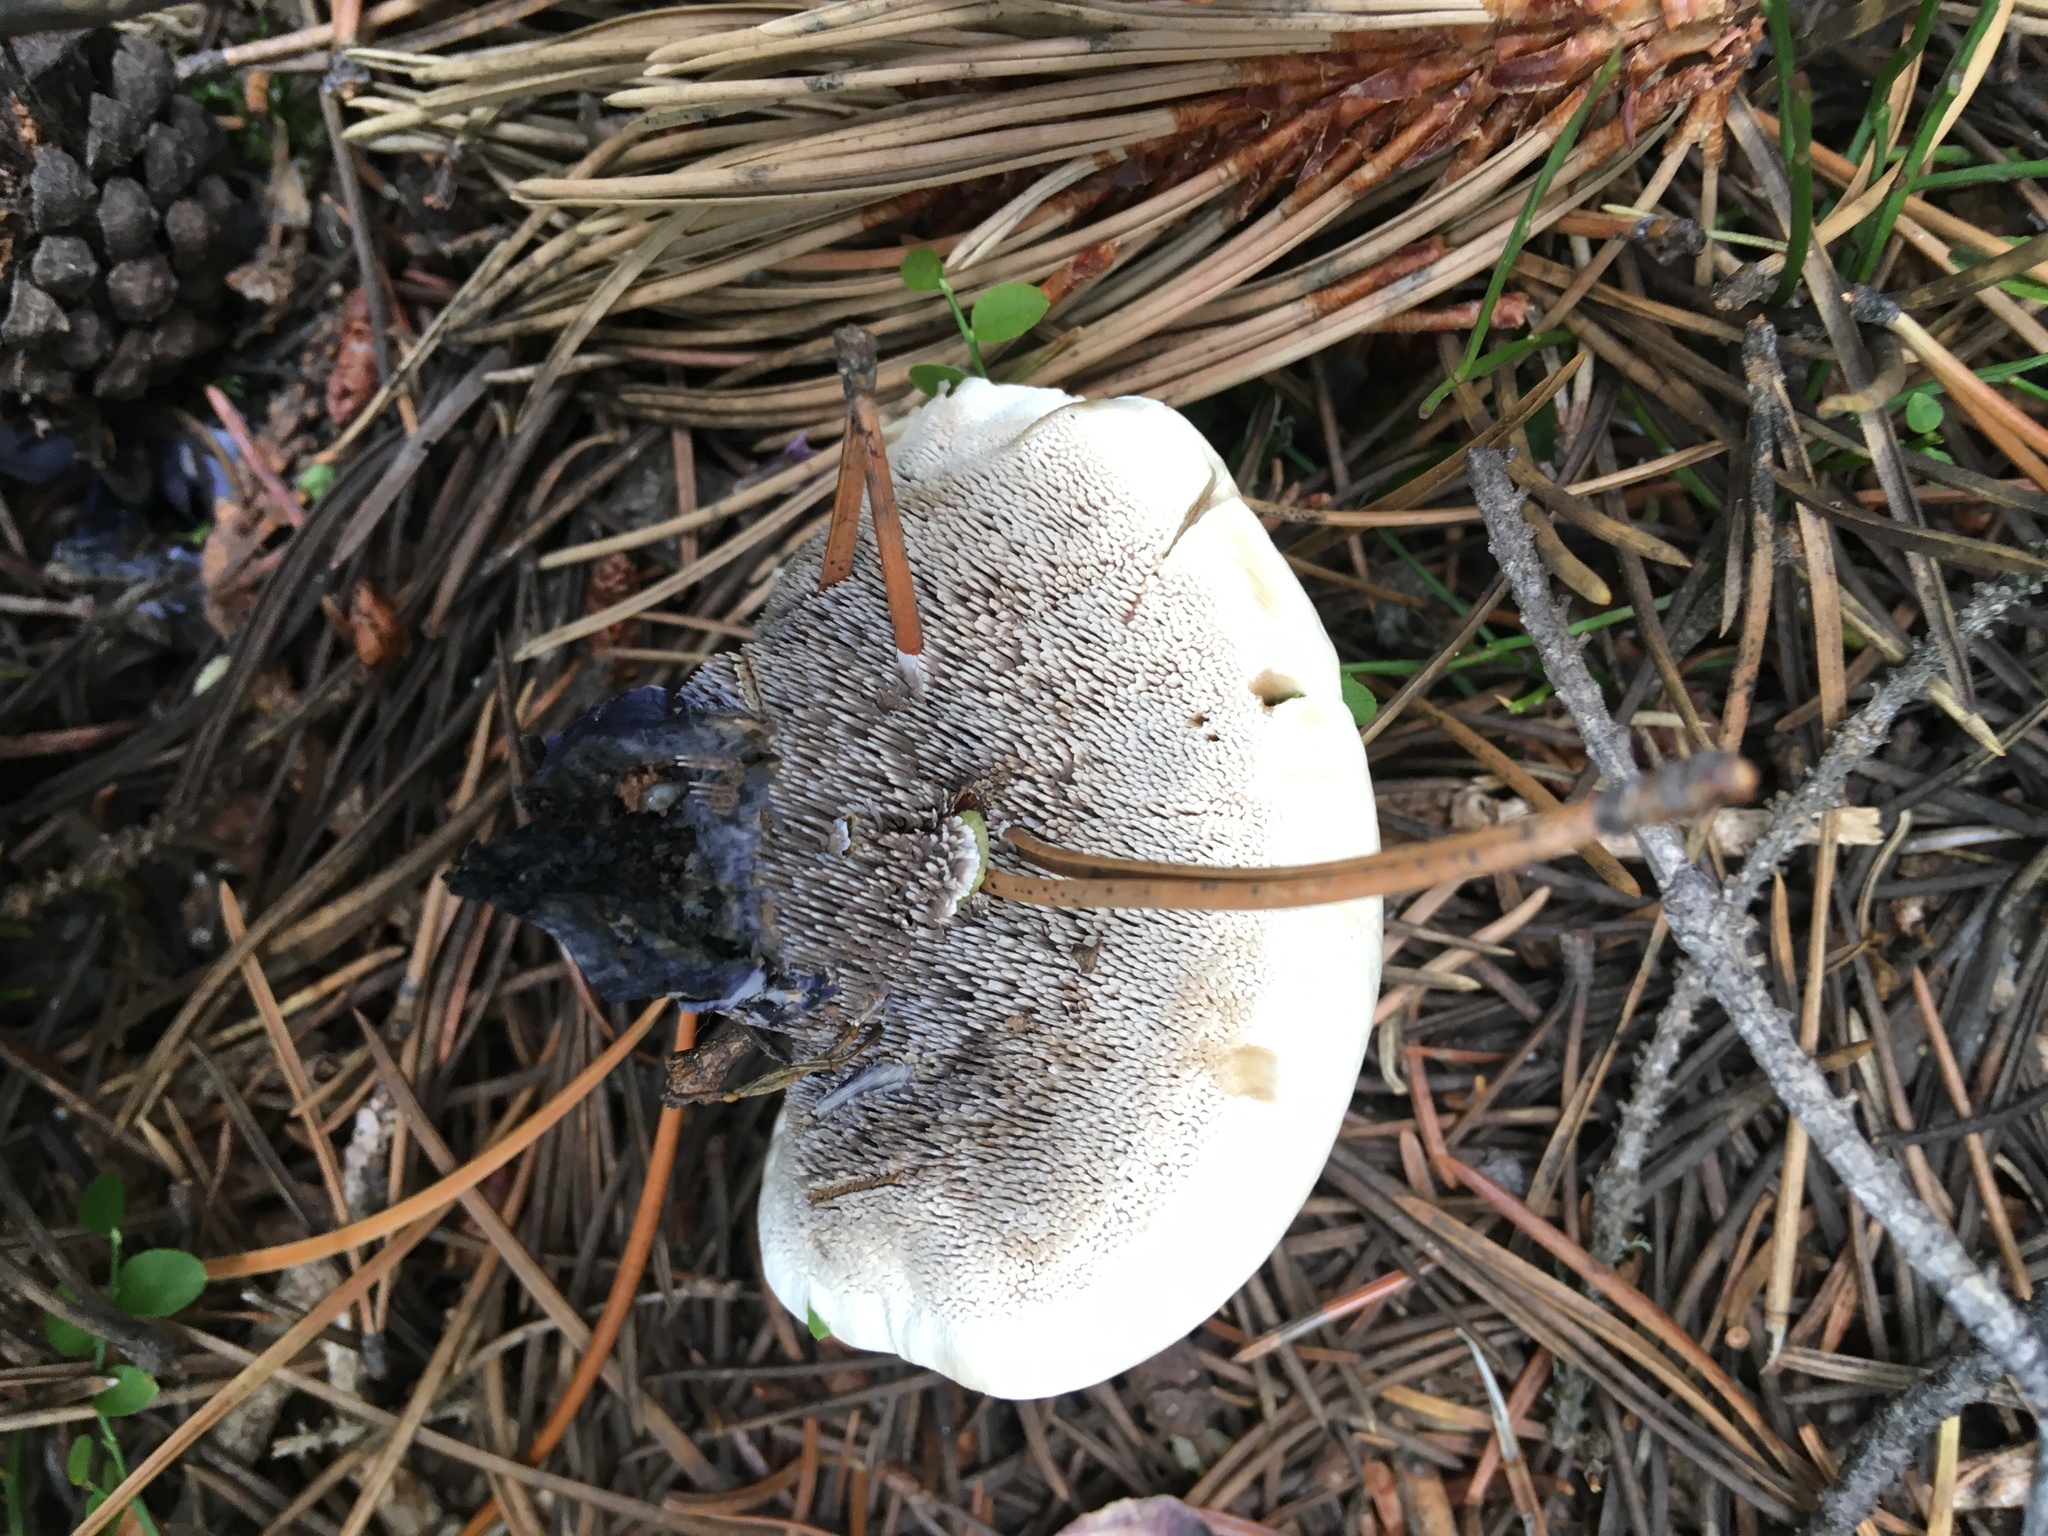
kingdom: Fungi
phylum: Basidiomycota
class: Agaricomycetes
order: Thelephorales
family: Bankeraceae
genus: Hydnellum
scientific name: Hydnellum suaveolens
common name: Sweetgrass hydnellum
